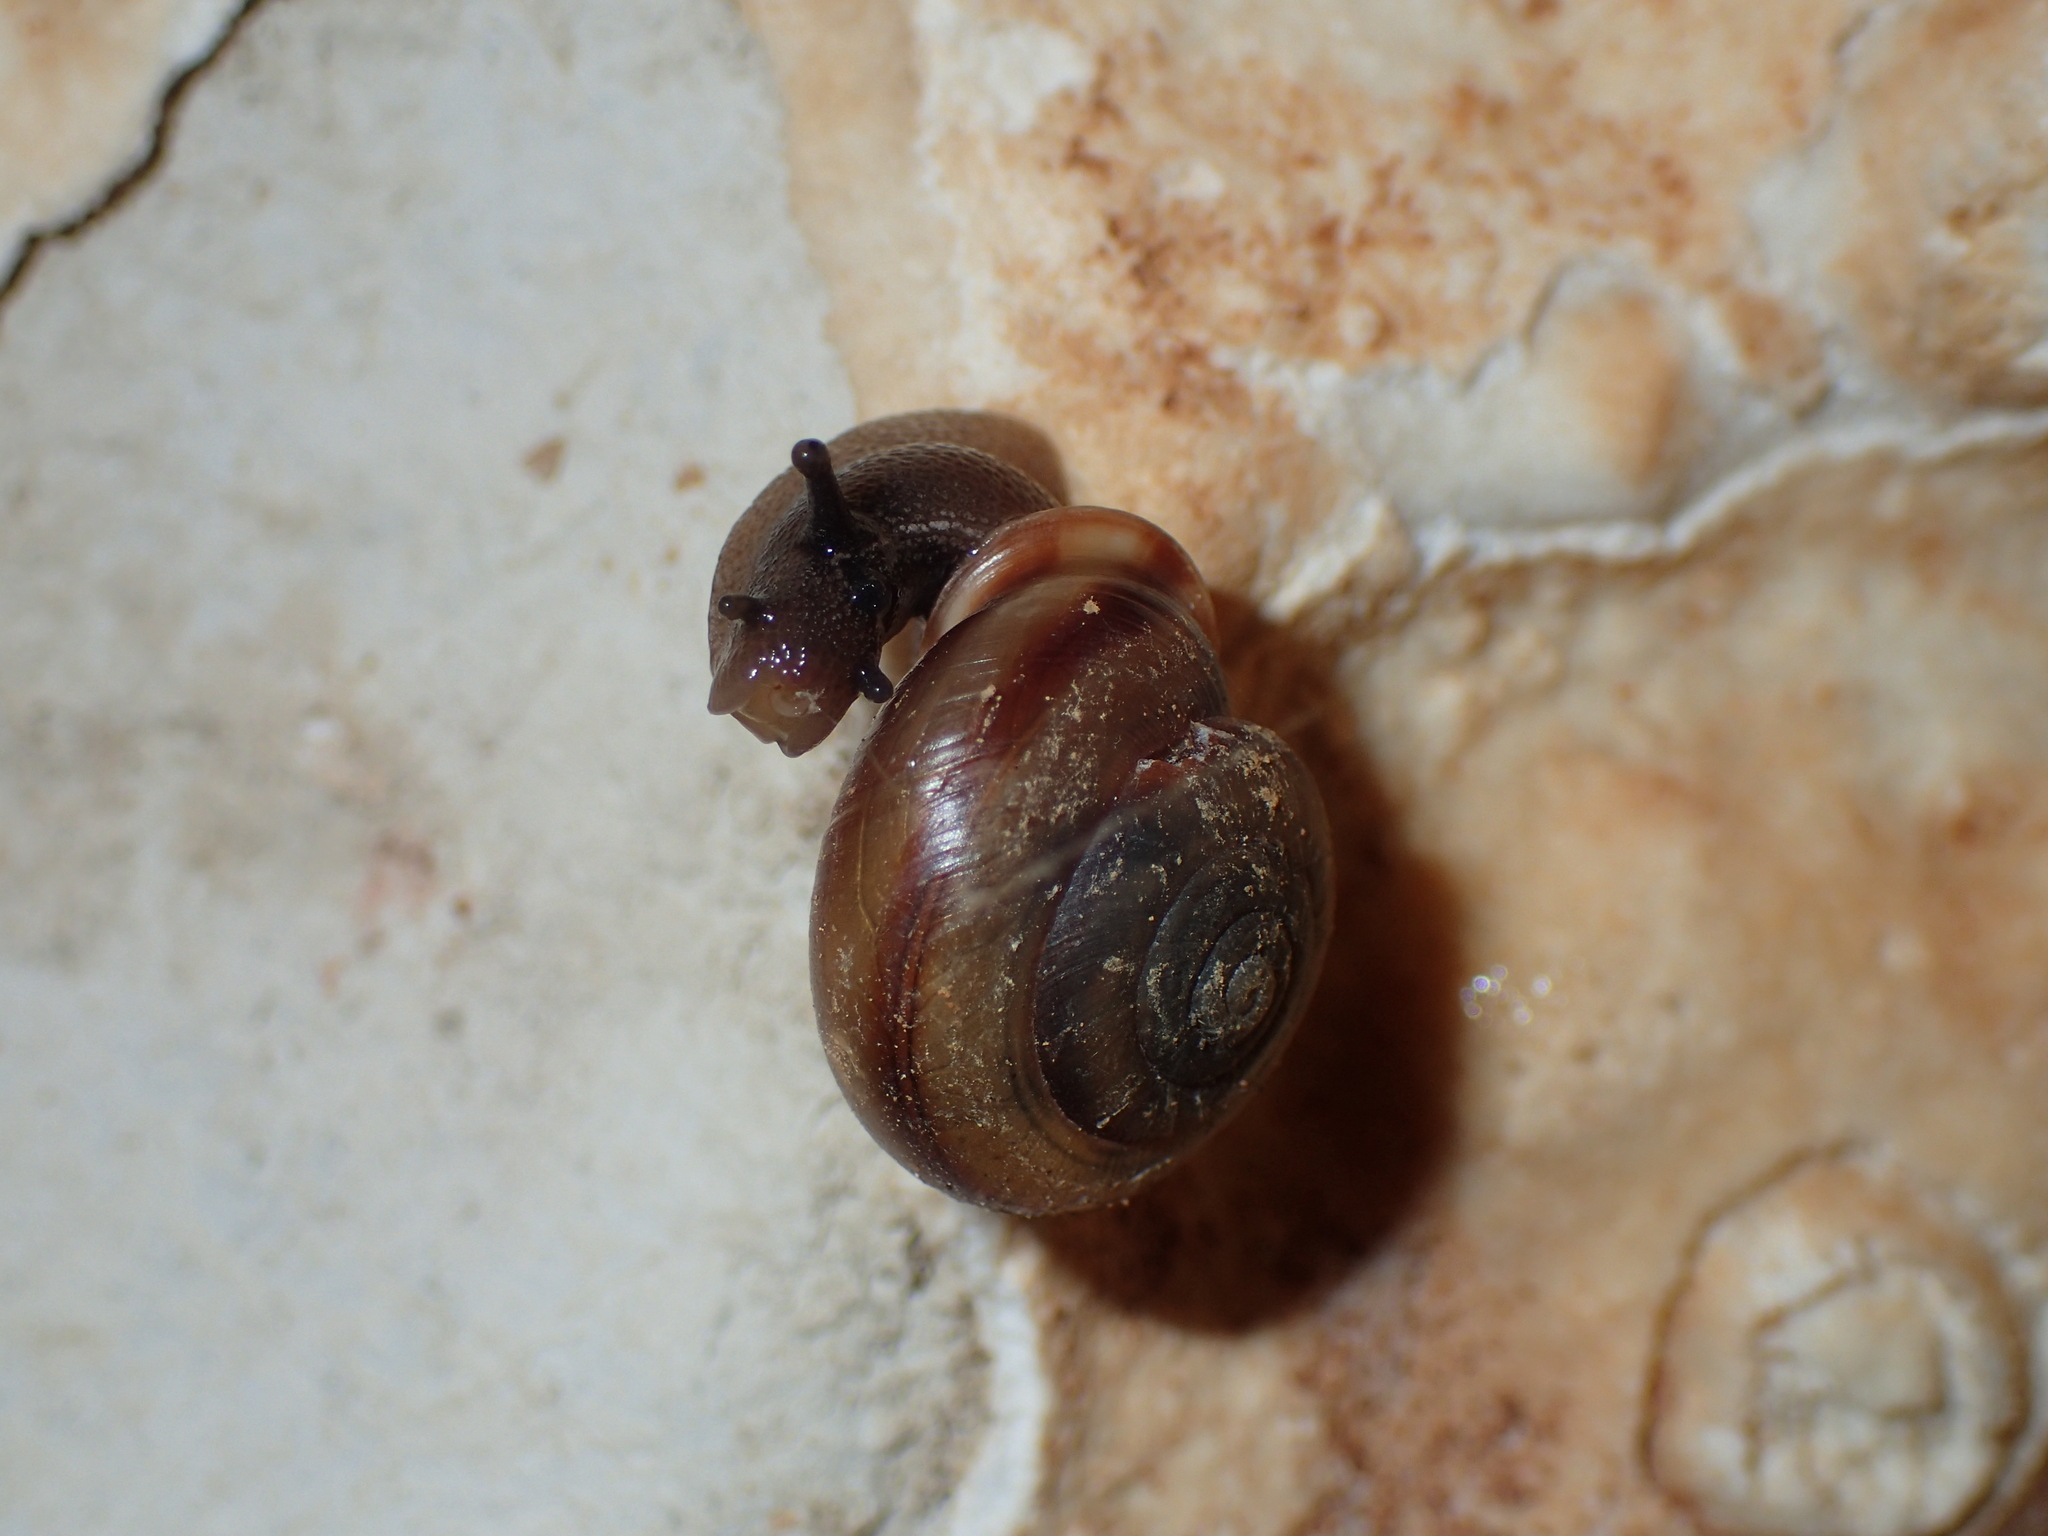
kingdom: Animalia
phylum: Mollusca
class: Gastropoda
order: Stylommatophora
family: Helicidae
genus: Corneola
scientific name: Corneola squamatina
